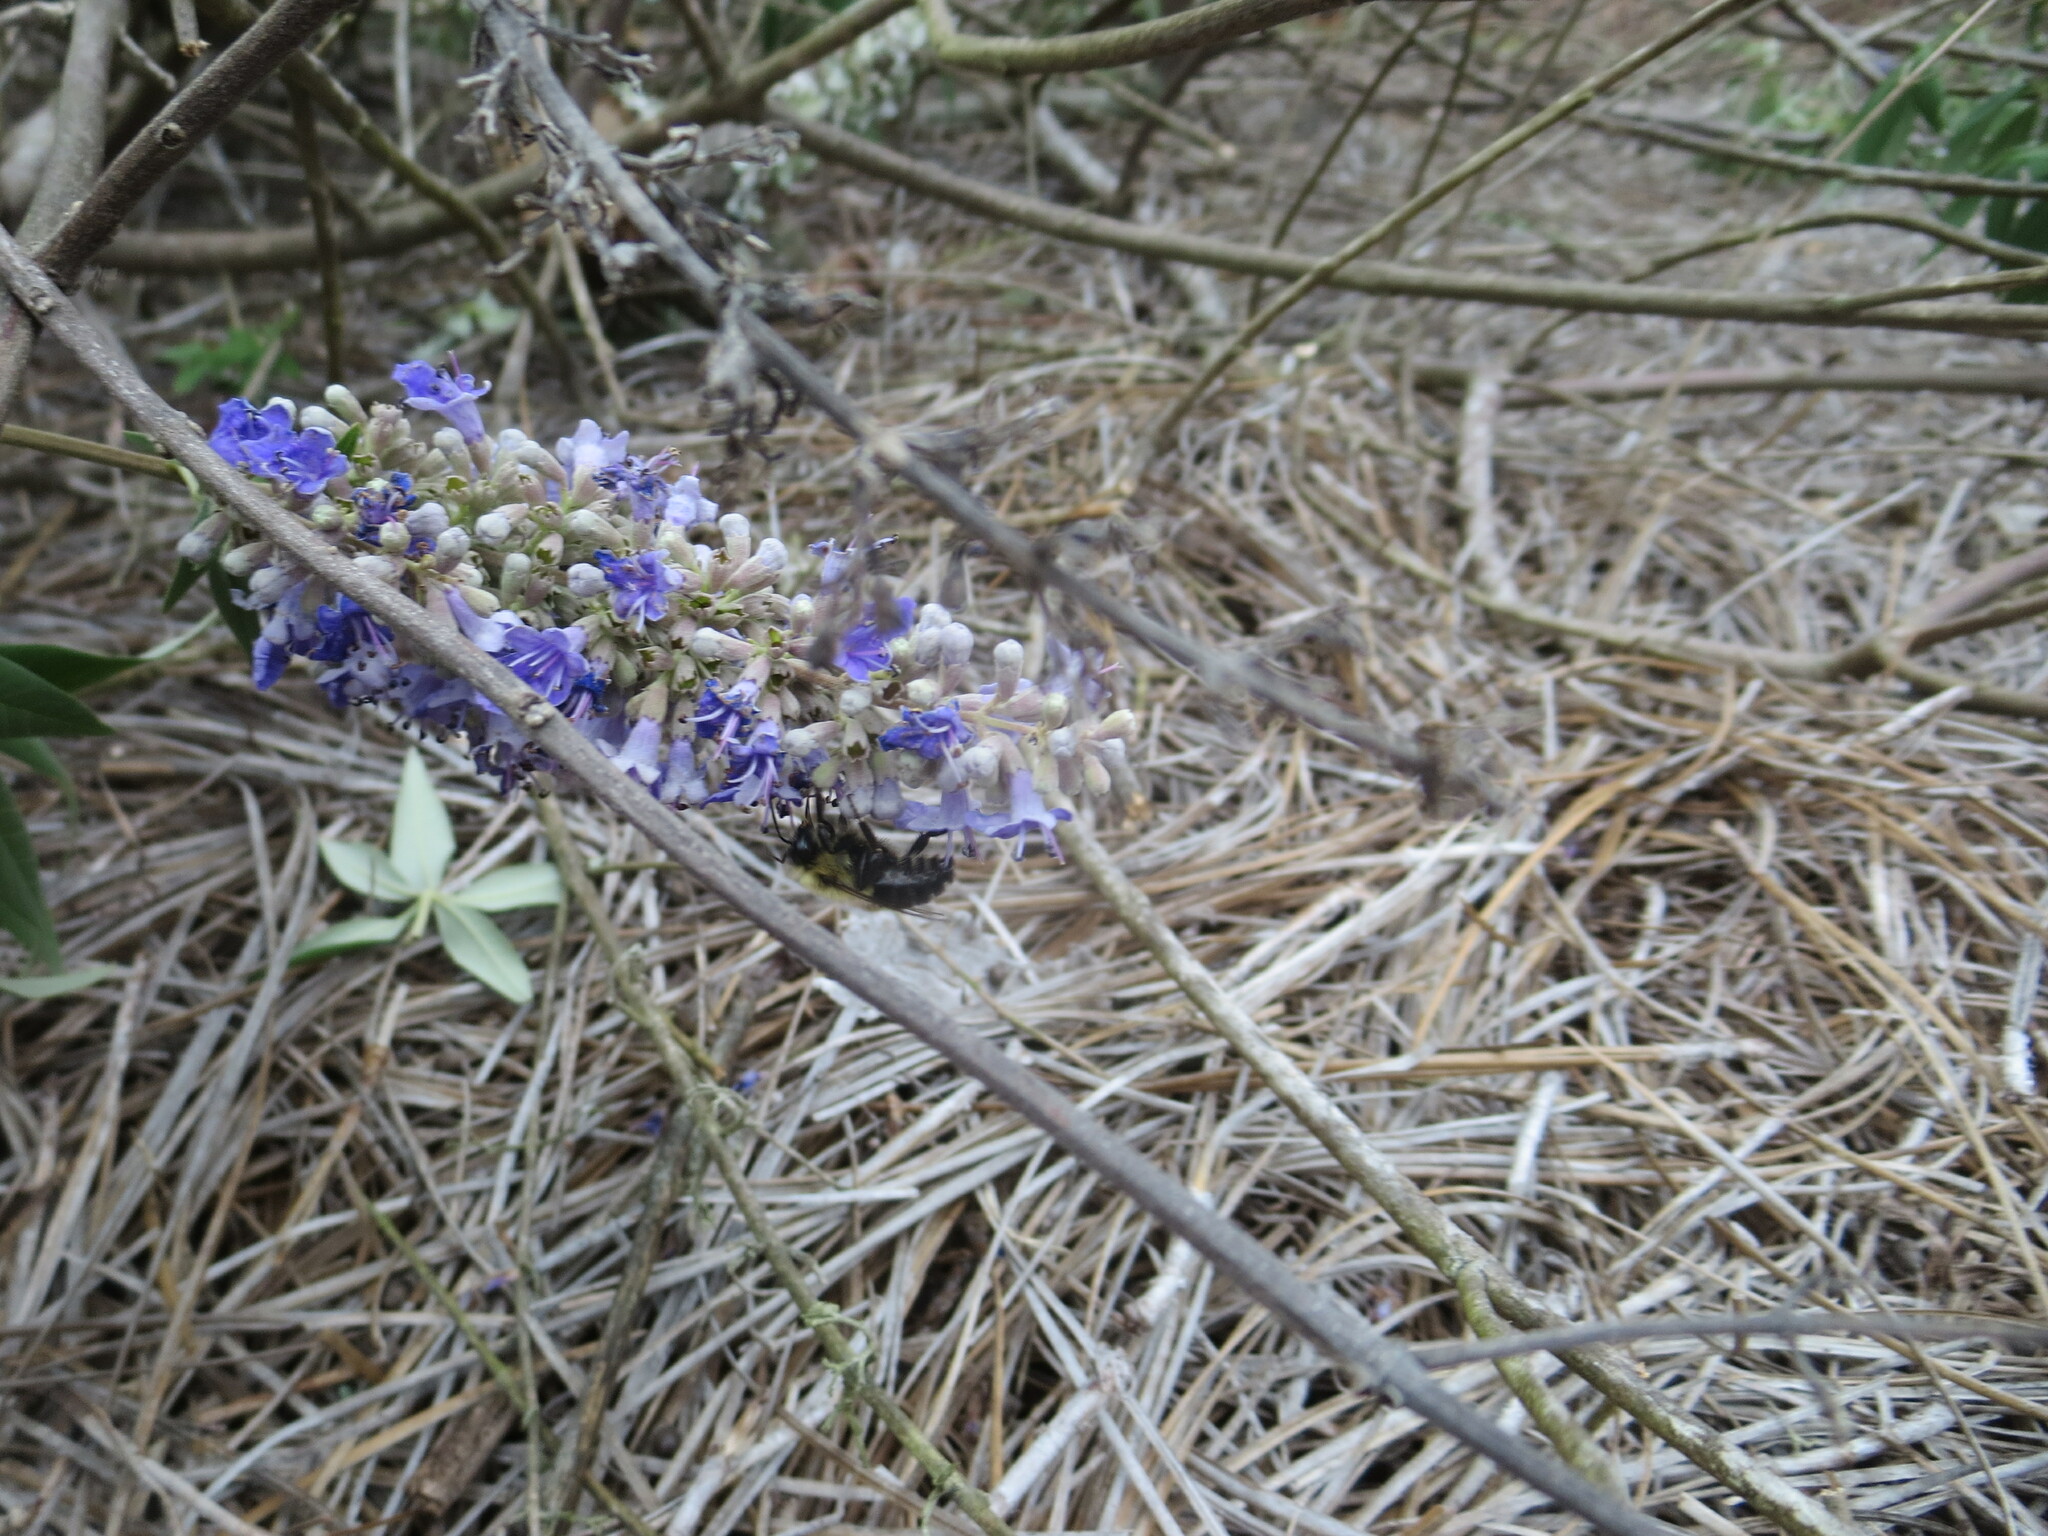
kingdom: Animalia
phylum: Arthropoda
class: Insecta
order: Hymenoptera
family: Apidae
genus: Bombus
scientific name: Bombus impatiens
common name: Common eastern bumble bee
